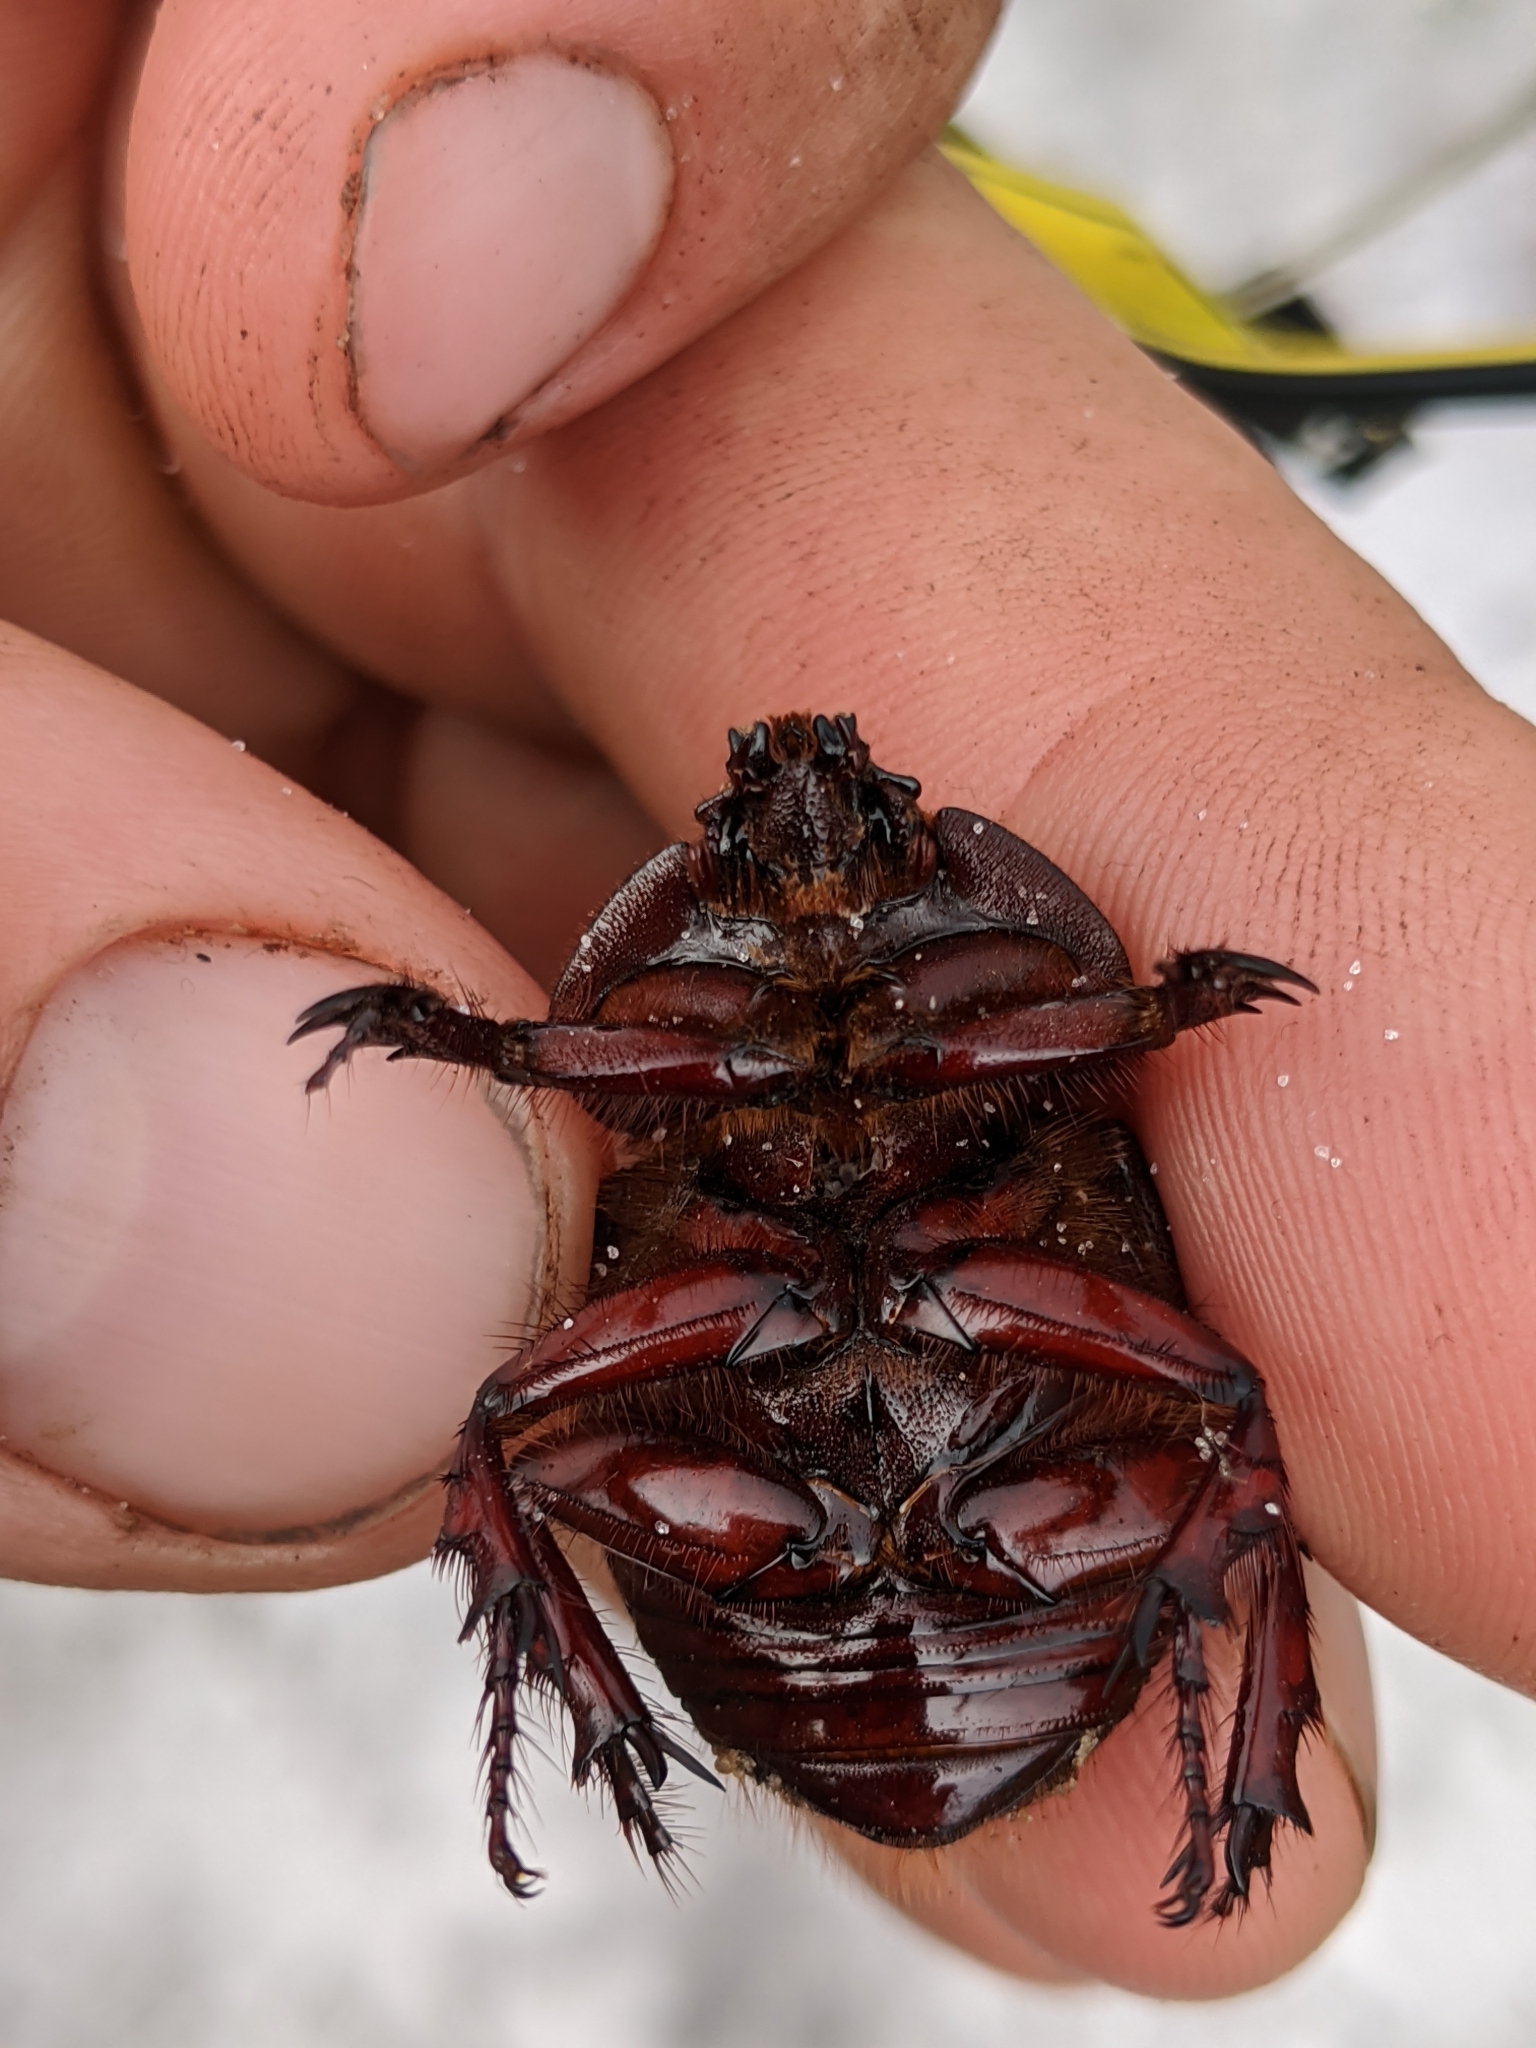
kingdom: Animalia
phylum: Arthropoda
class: Insecta
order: Coleoptera
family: Scarabaeidae
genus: Strategus
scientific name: Strategus antaeus
